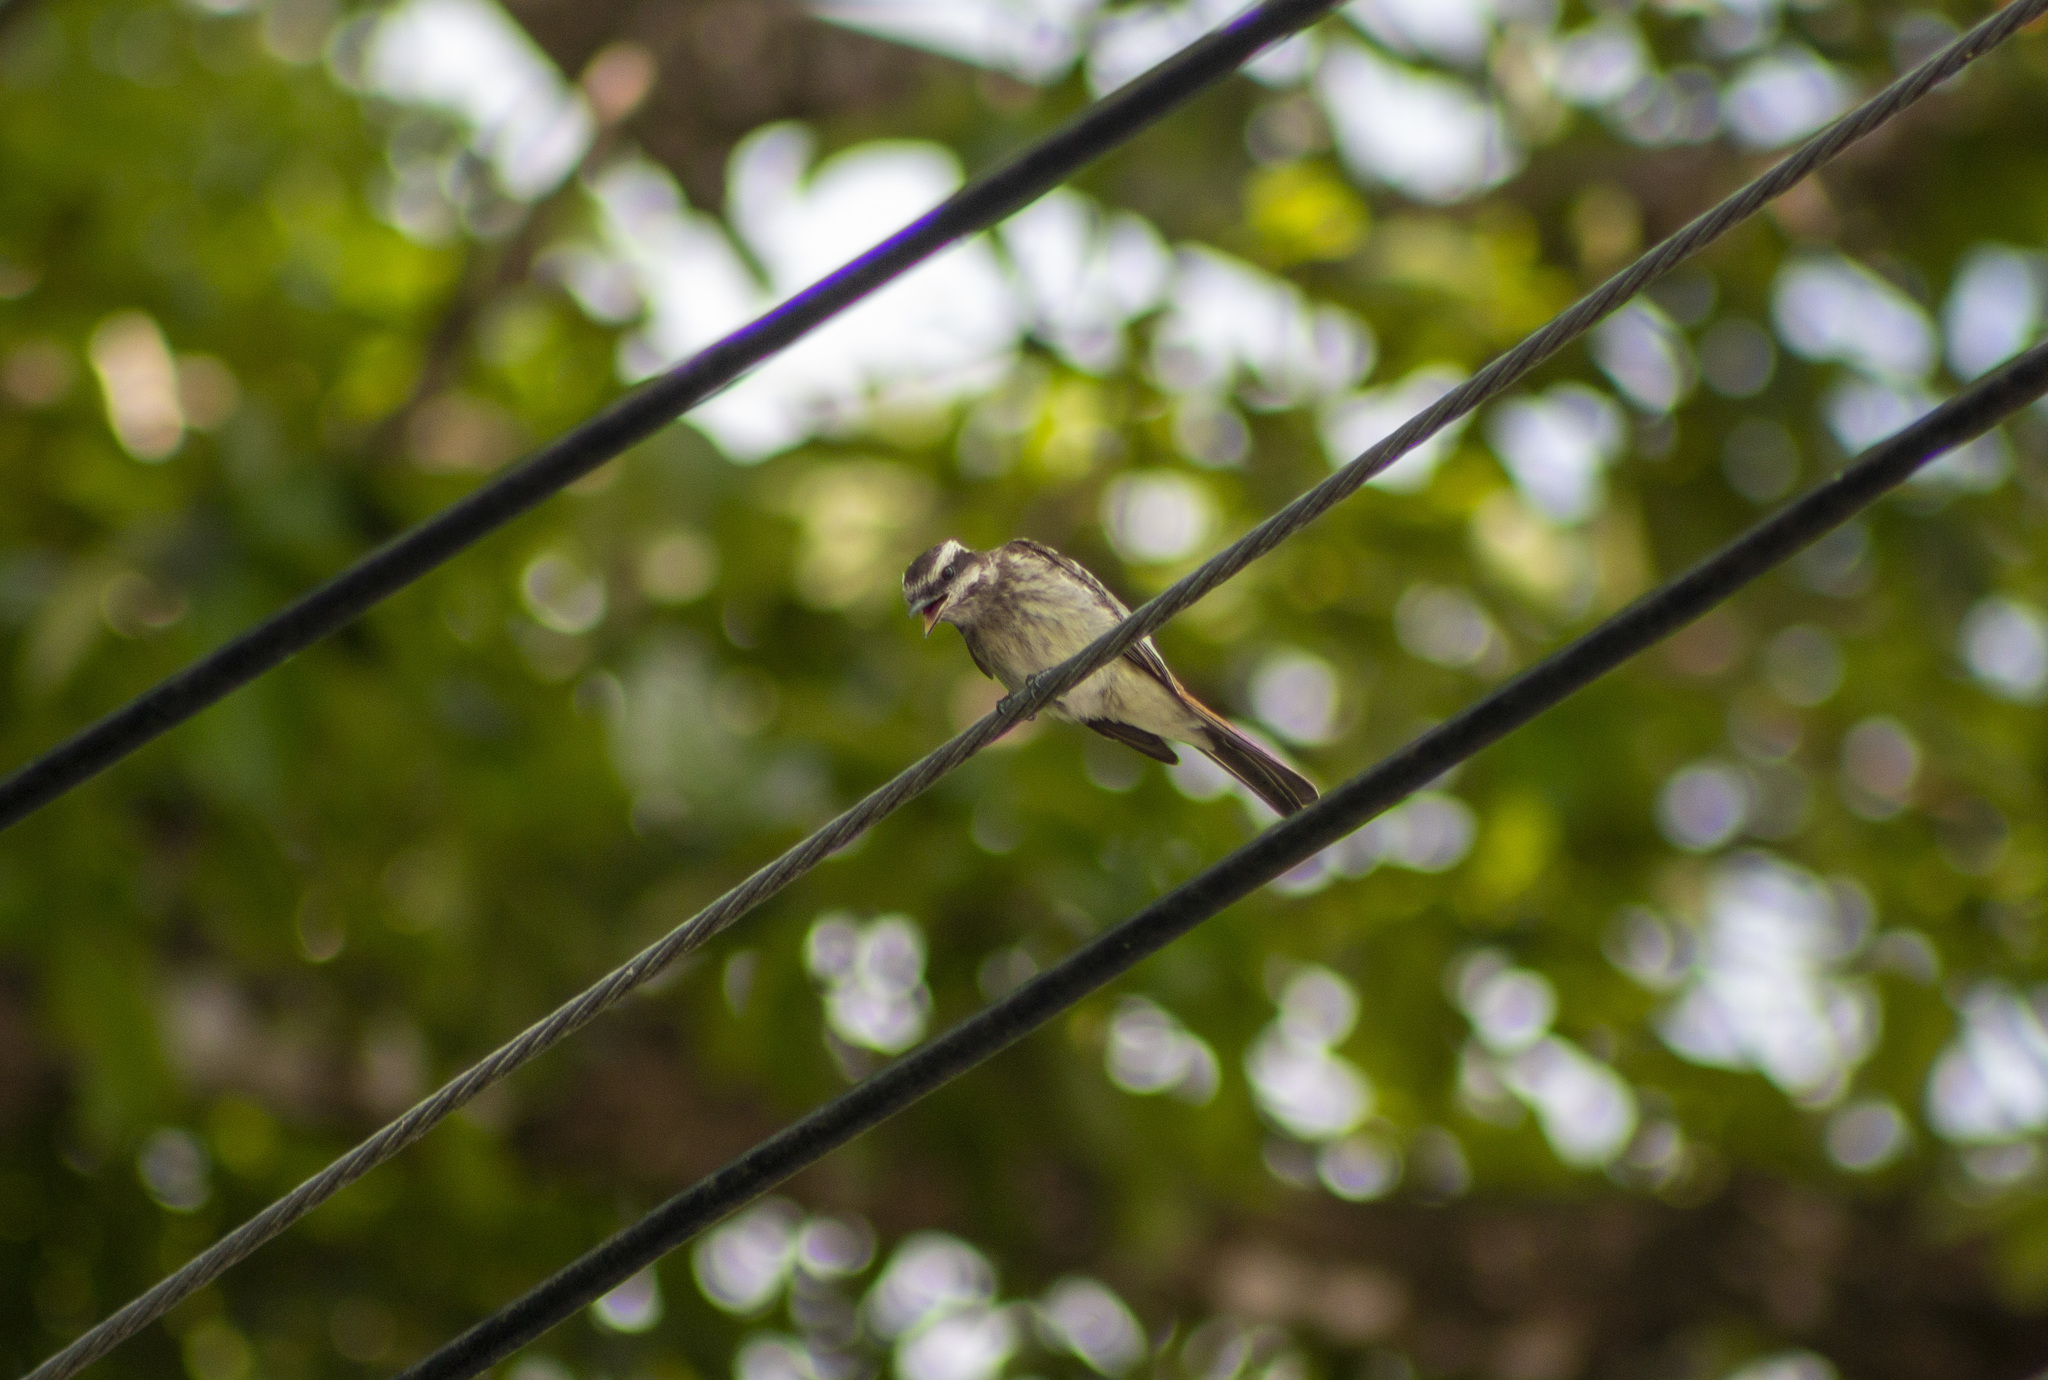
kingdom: Animalia
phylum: Chordata
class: Aves
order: Passeriformes
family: Tyrannidae
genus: Empidonomus
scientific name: Empidonomus varius
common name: Variegated flycatcher
